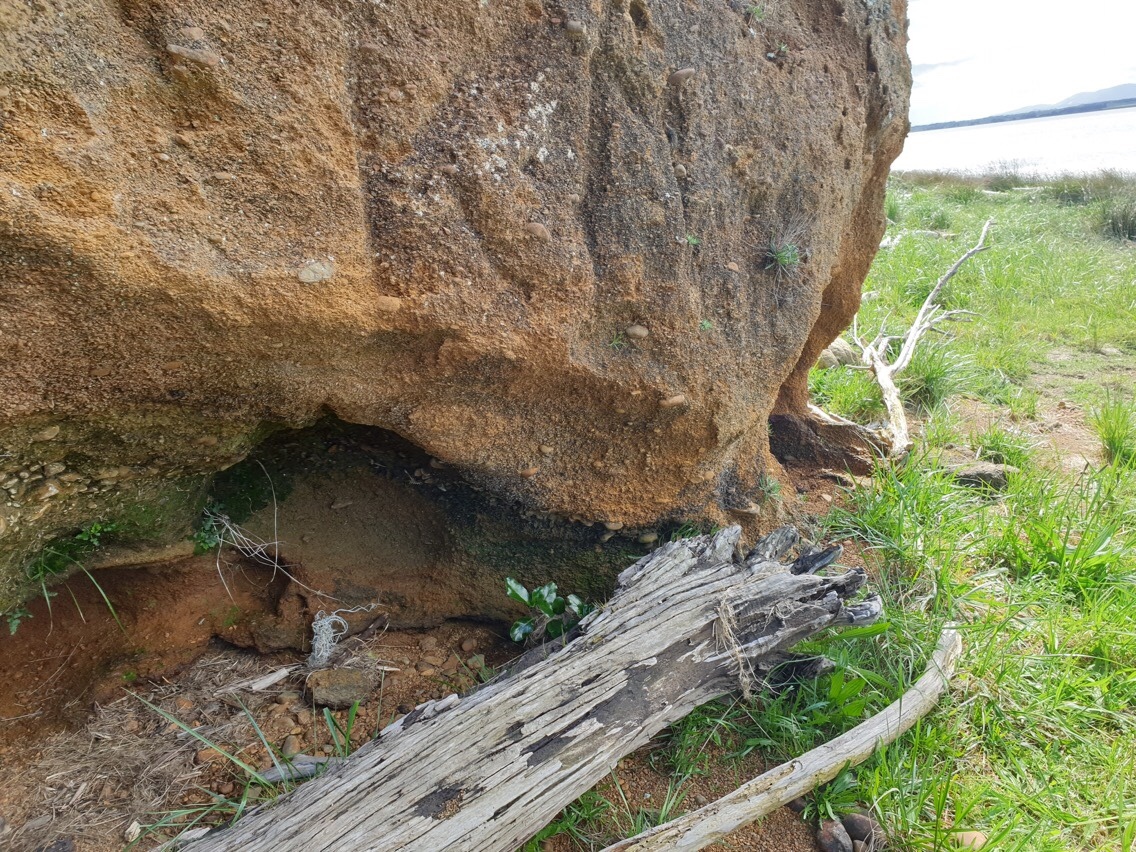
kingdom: Plantae
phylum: Tracheophyta
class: Polypodiopsida
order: Polypodiales
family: Aspleniaceae
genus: Asplenium
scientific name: Asplenium appendiculatum
